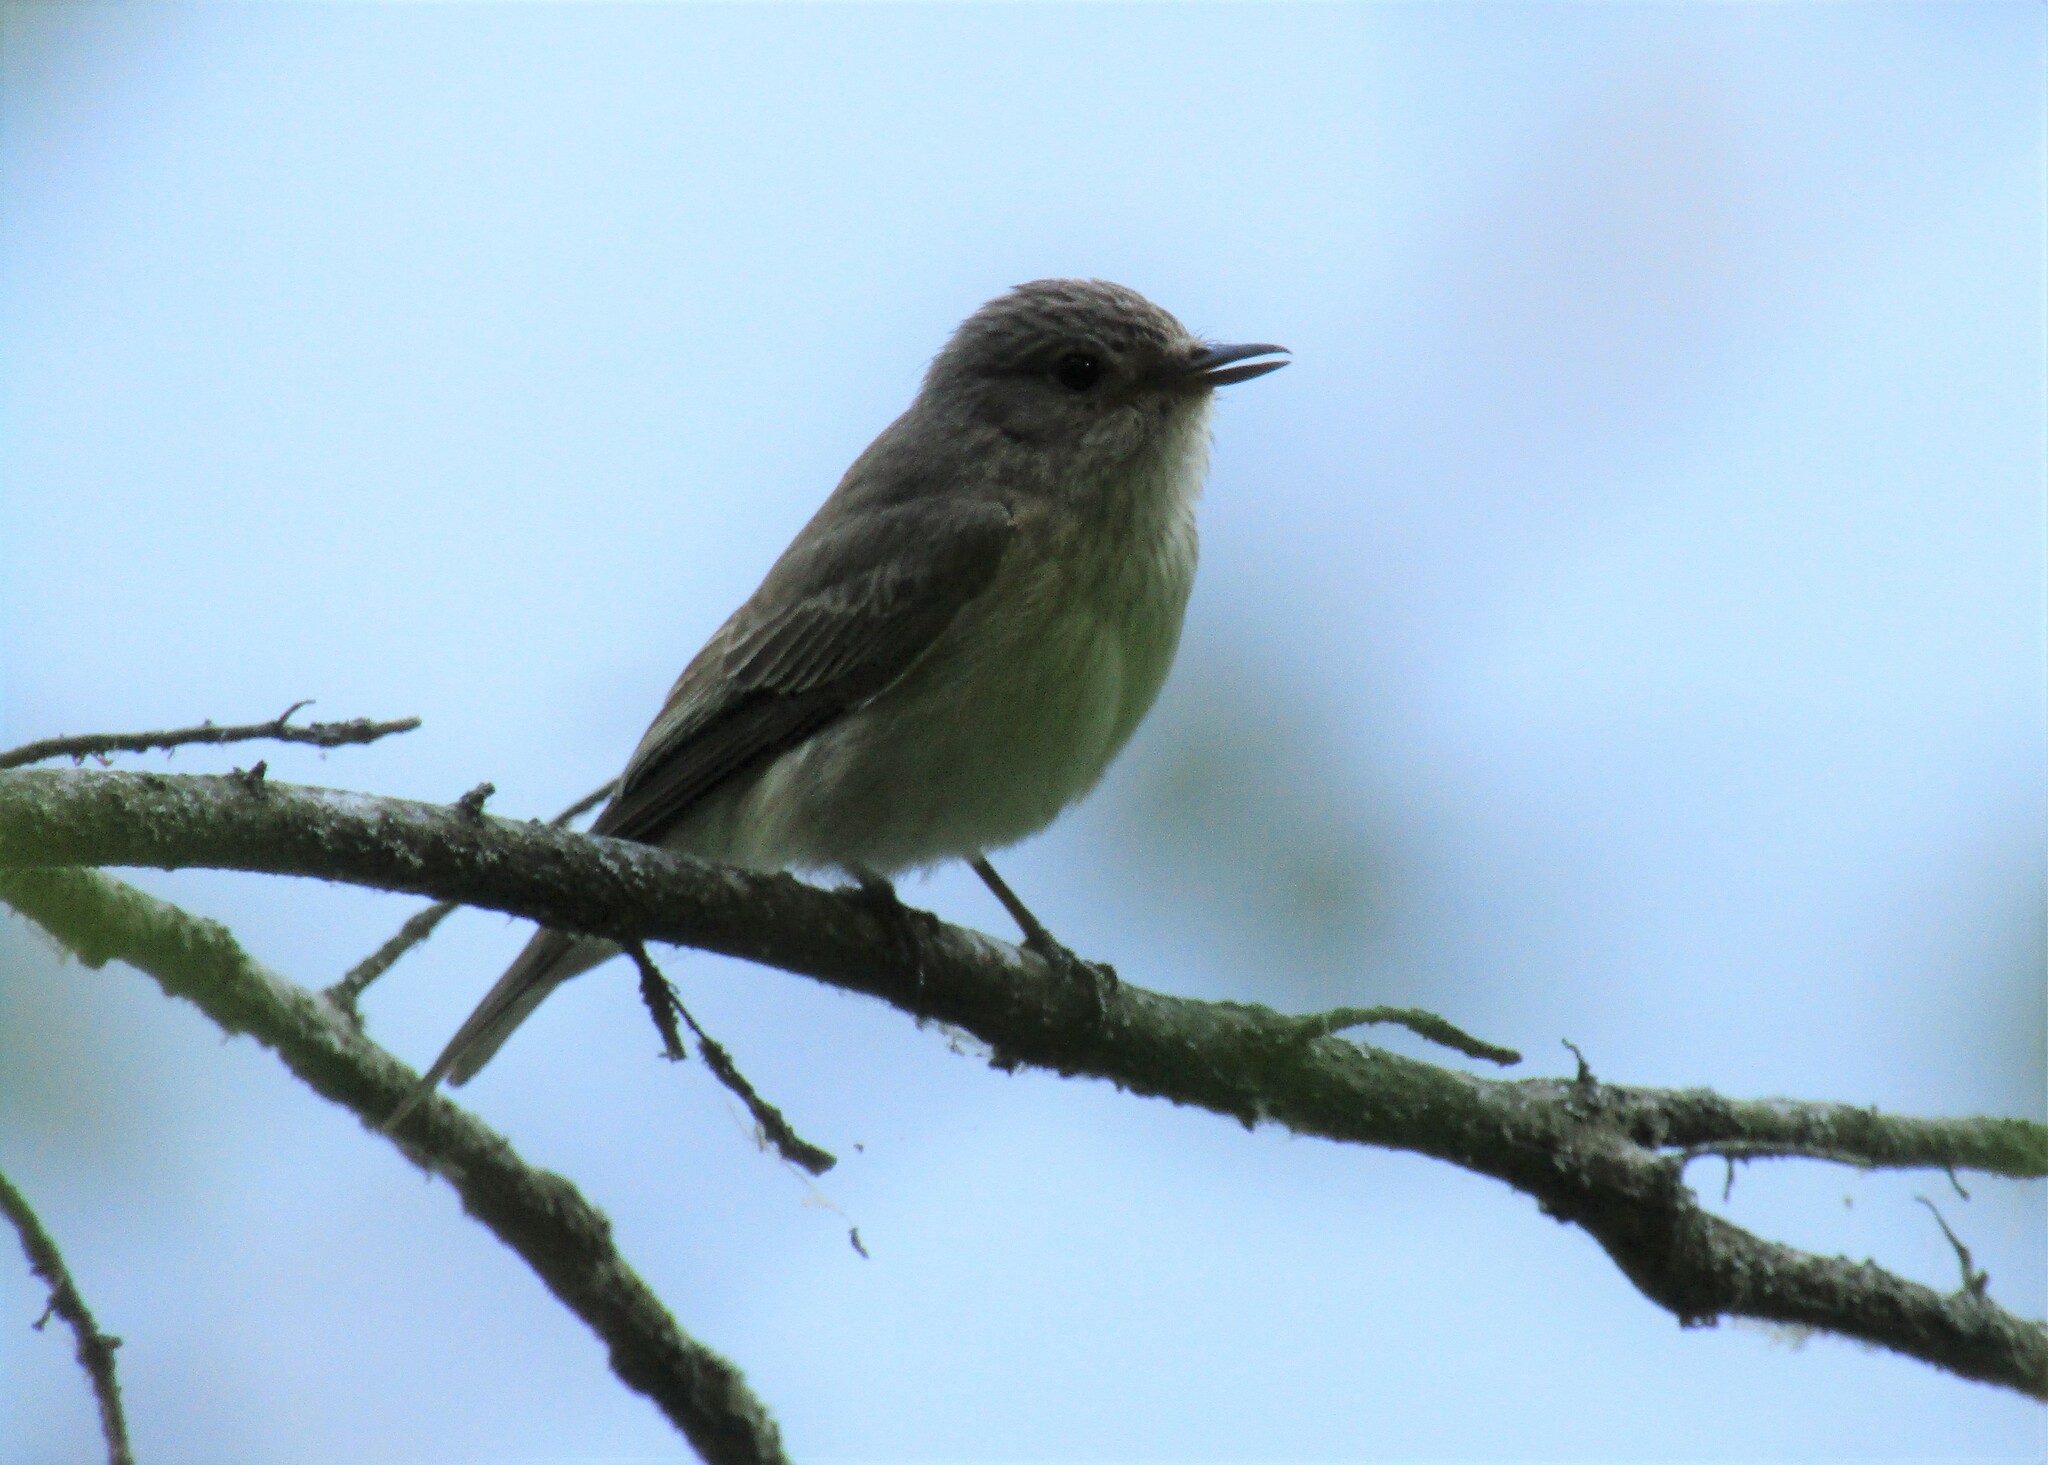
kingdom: Animalia
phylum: Chordata
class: Aves
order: Passeriformes
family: Muscicapidae
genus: Muscicapa
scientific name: Muscicapa striata
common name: Spotted flycatcher
